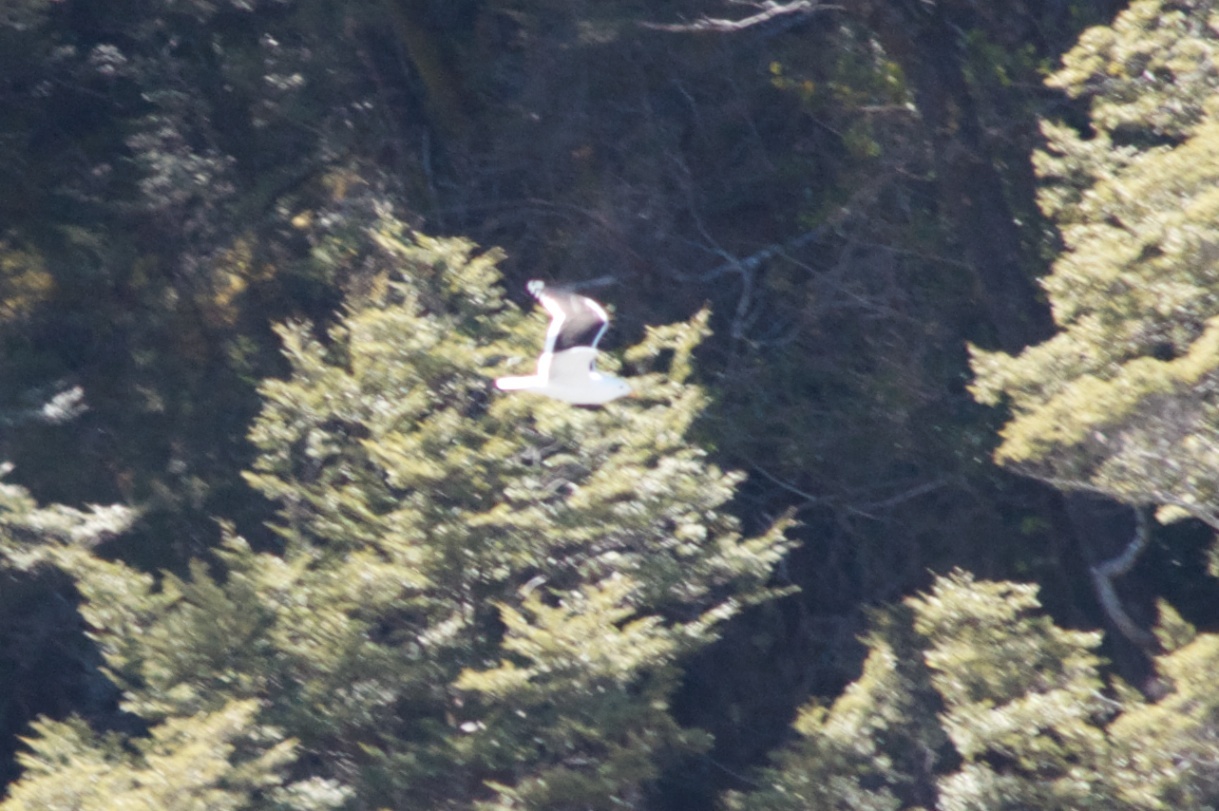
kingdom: Animalia
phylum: Chordata
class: Aves
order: Charadriiformes
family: Laridae
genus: Larus
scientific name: Larus dominicanus
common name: Kelp gull
